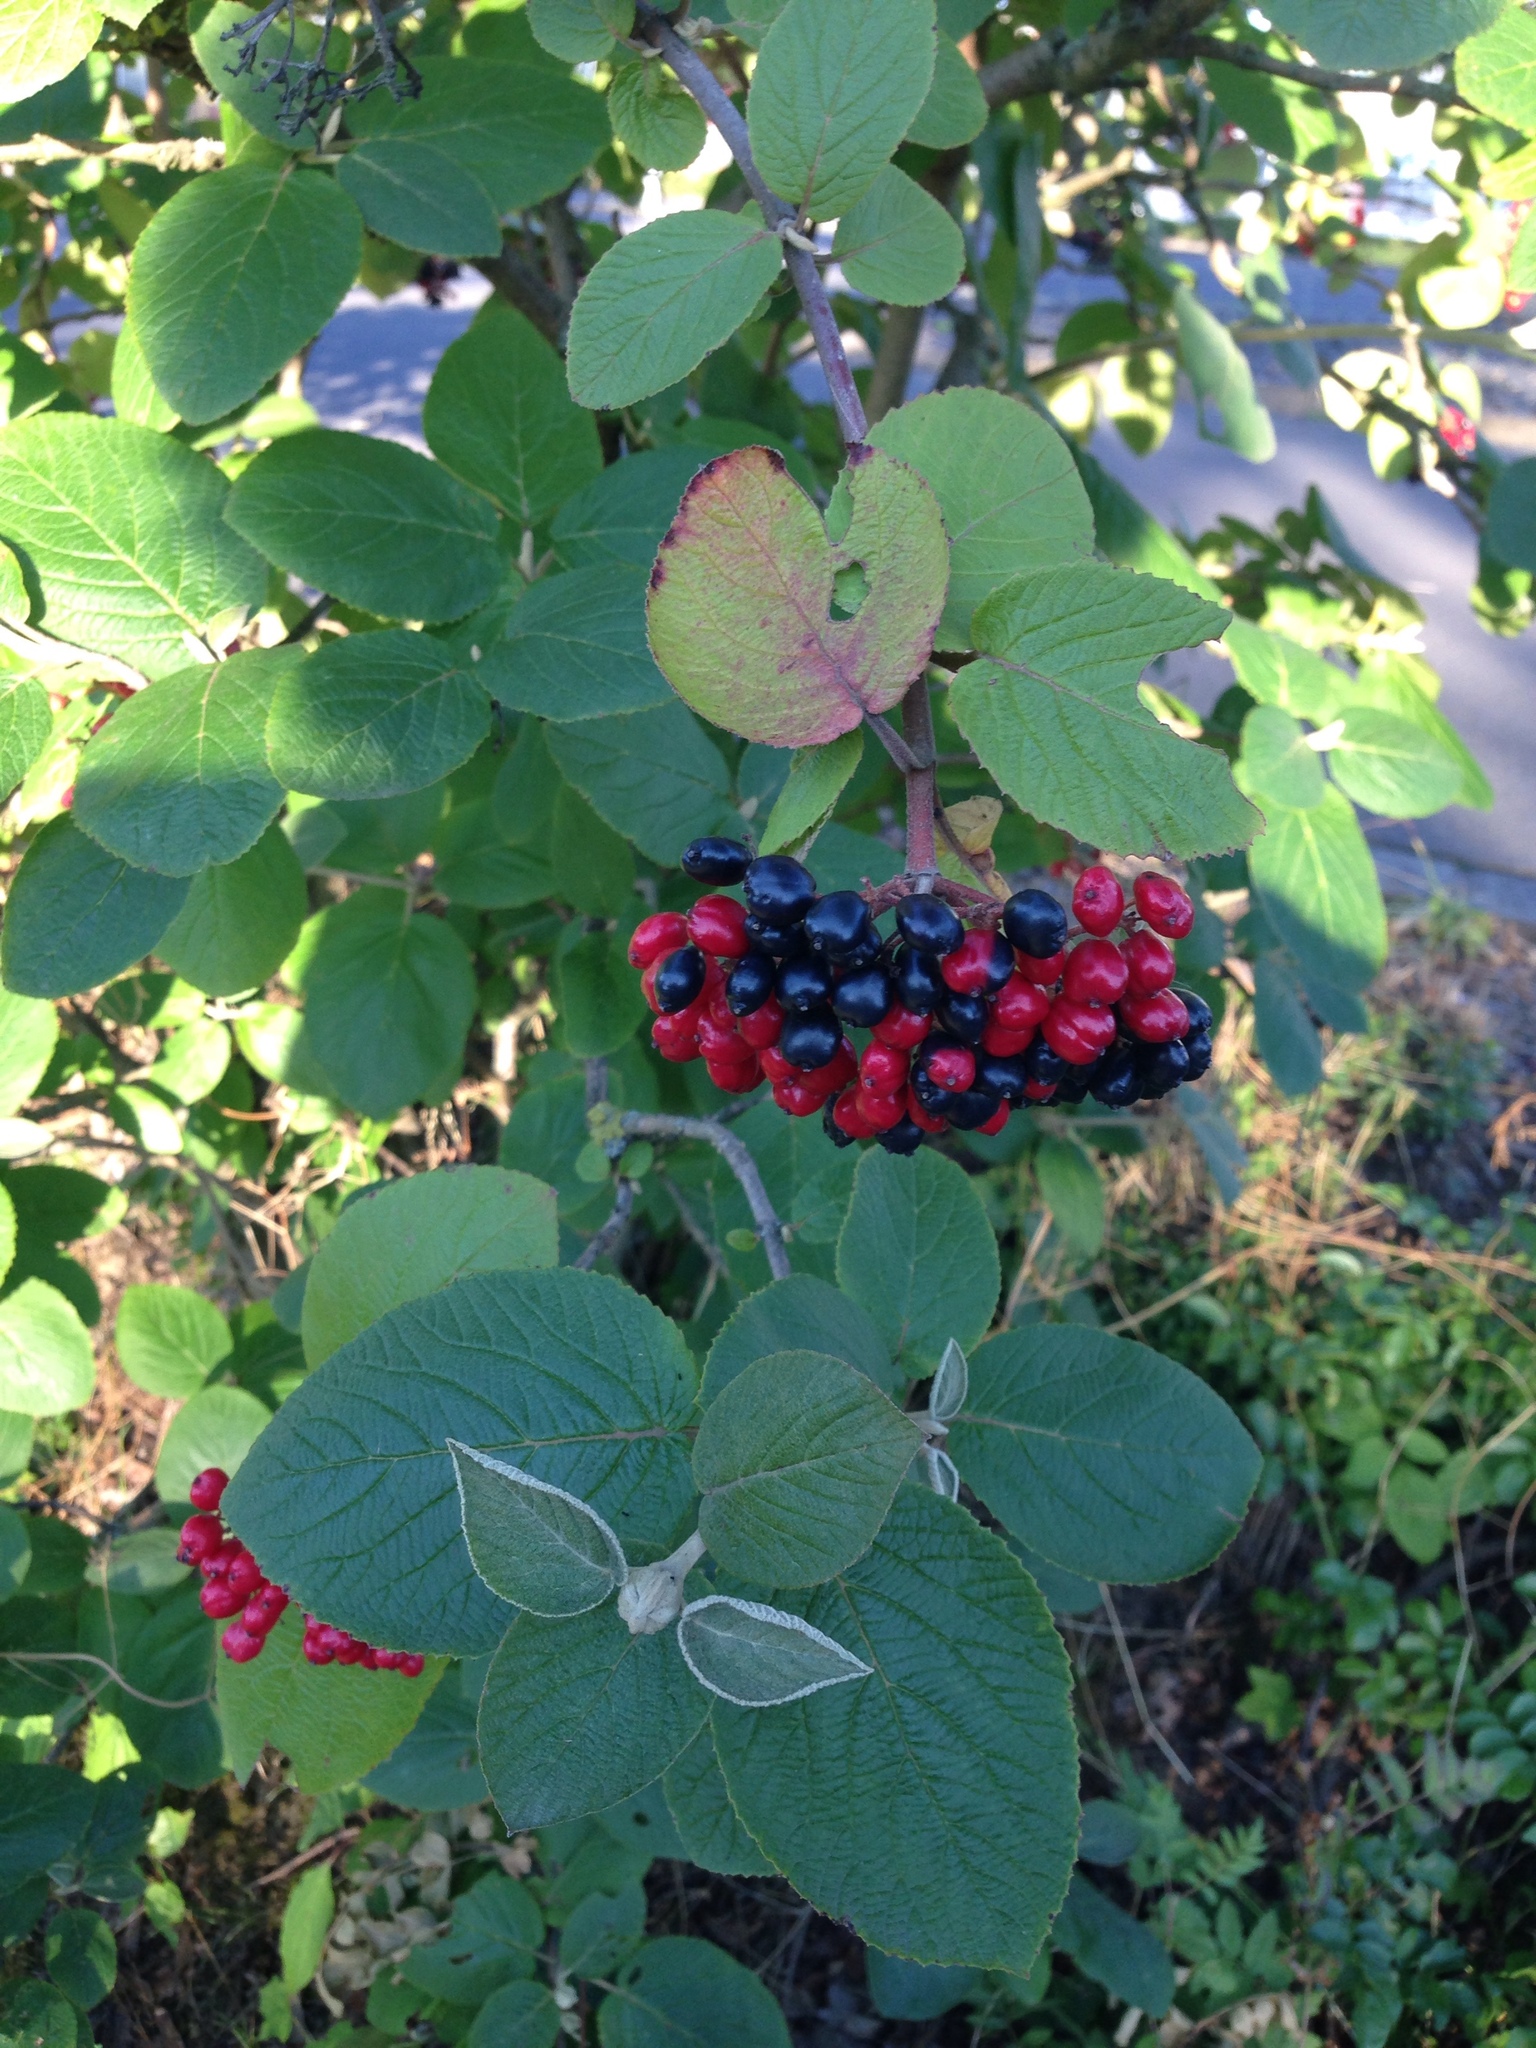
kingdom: Plantae
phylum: Tracheophyta
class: Magnoliopsida
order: Dipsacales
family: Viburnaceae
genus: Viburnum
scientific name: Viburnum lantana
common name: Wayfaring tree
